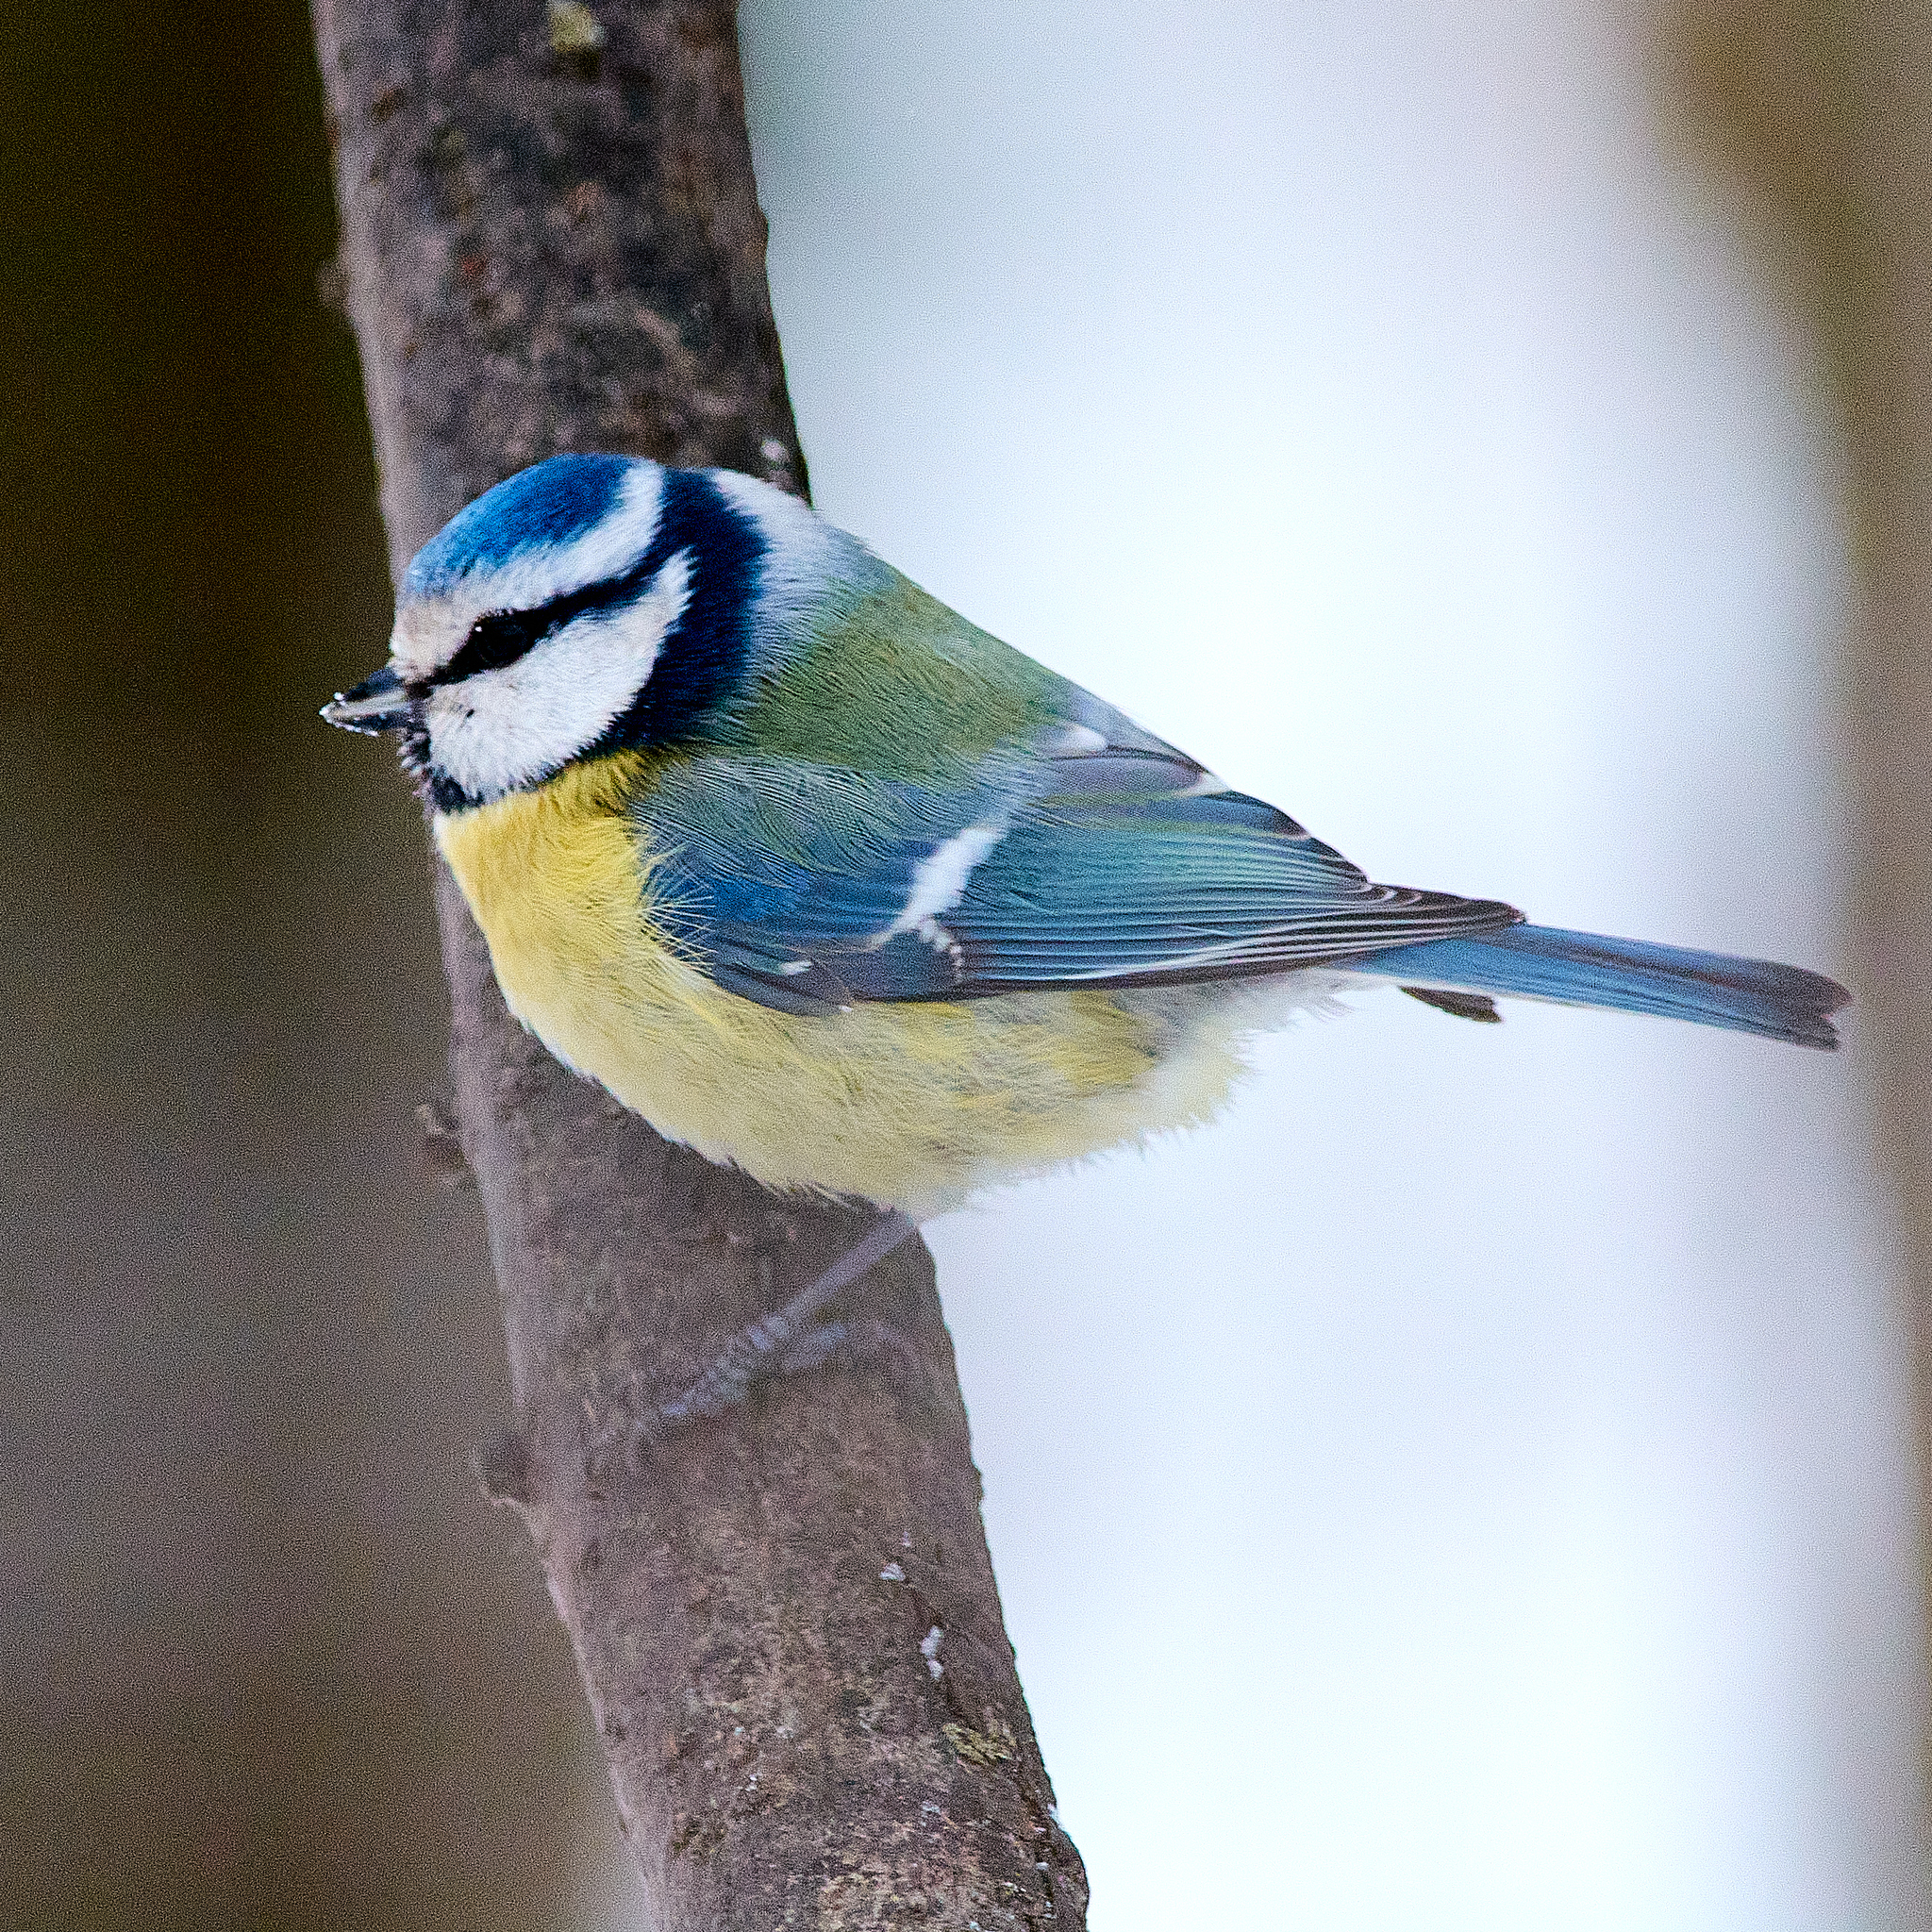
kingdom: Animalia
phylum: Chordata
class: Aves
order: Passeriformes
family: Paridae
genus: Cyanistes
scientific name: Cyanistes caeruleus
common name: Eurasian blue tit
